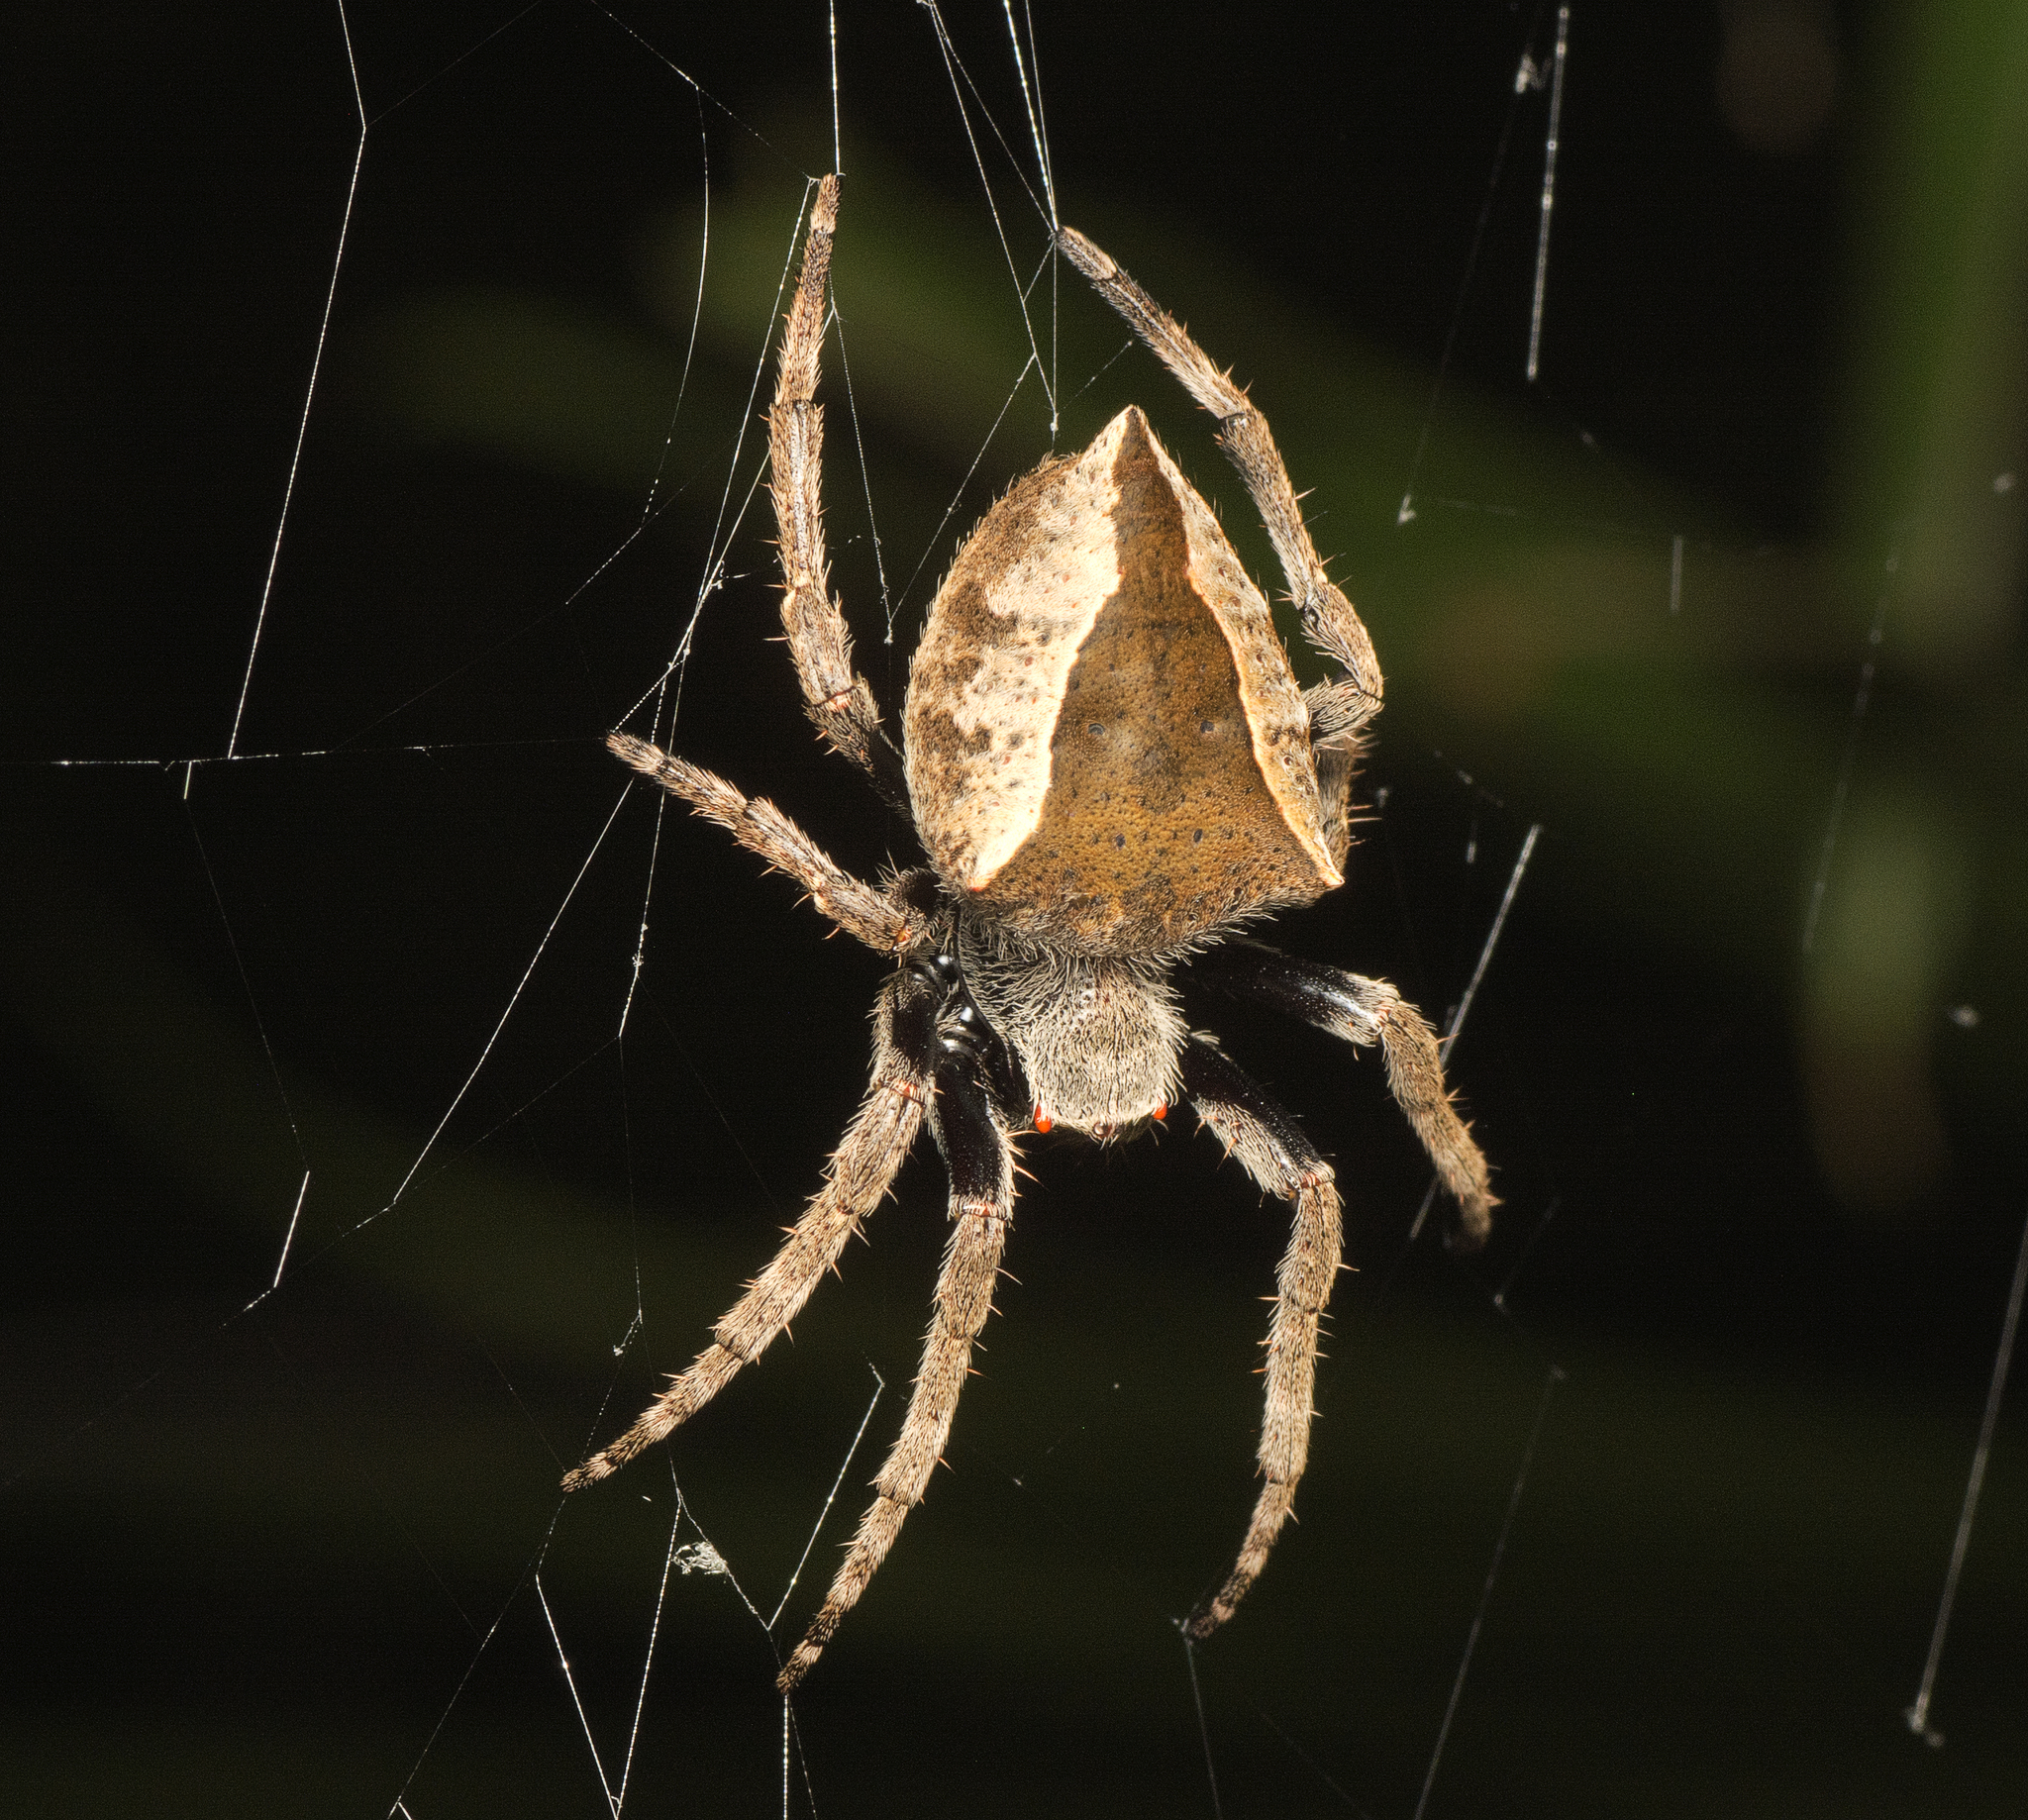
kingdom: Animalia
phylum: Arthropoda
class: Arachnida
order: Araneae
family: Araneidae
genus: Parawixia
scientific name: Parawixia dehaani
